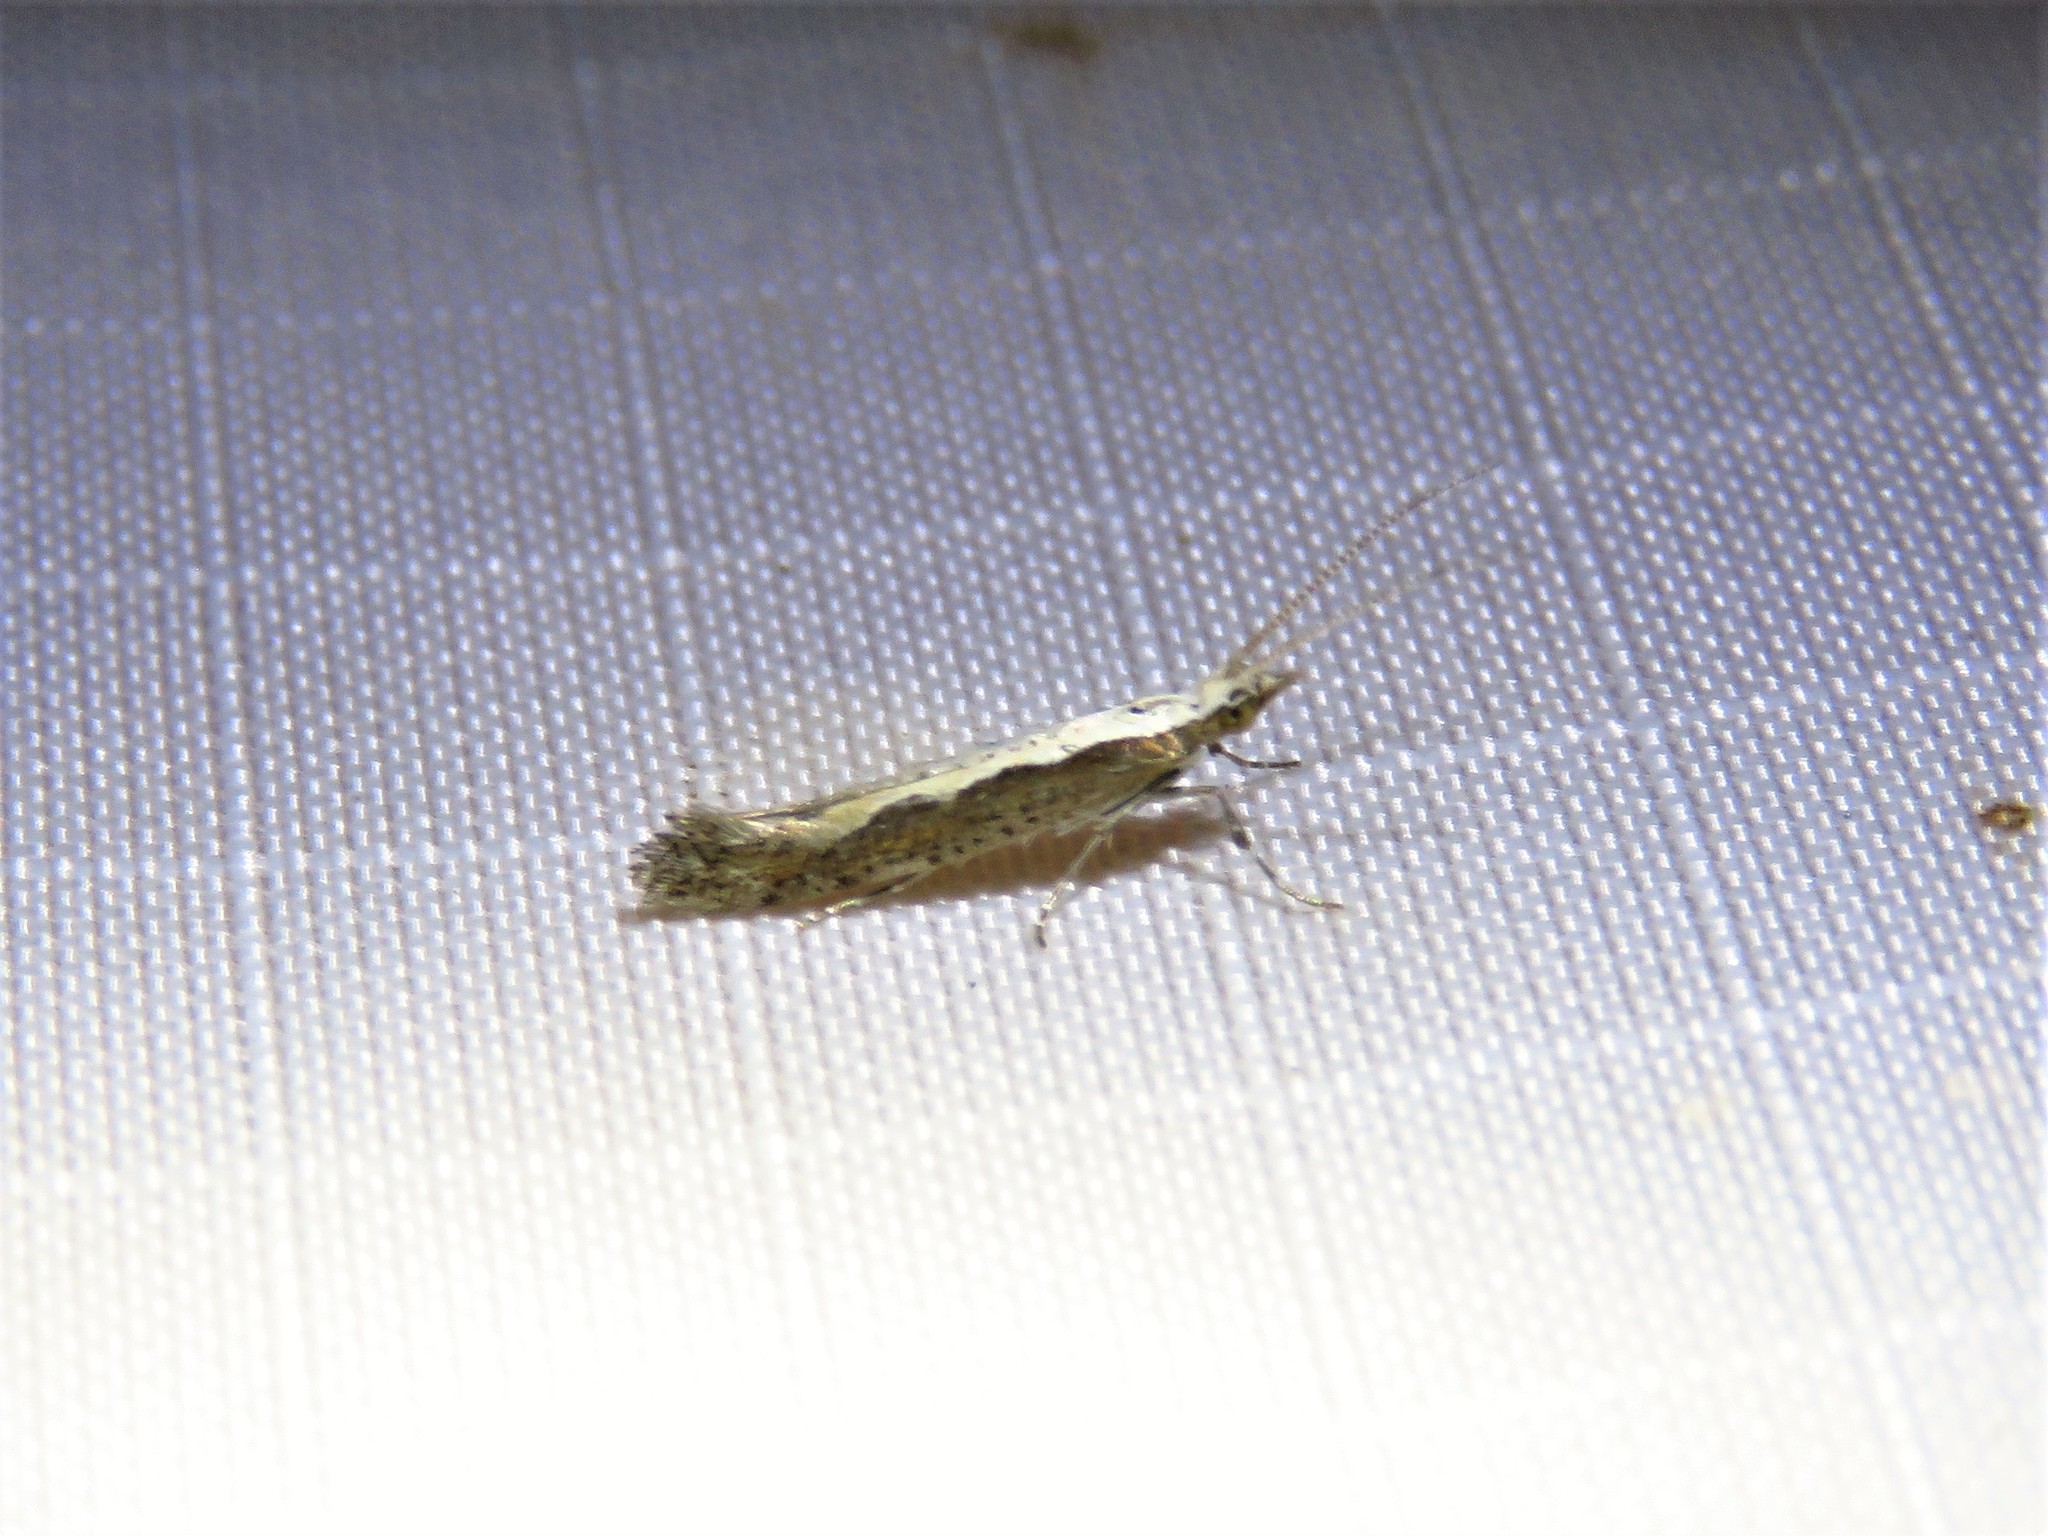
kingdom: Animalia
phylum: Arthropoda
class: Insecta
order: Lepidoptera
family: Plutellidae
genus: Plutella
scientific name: Plutella xylostella
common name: Diamond-back moth
